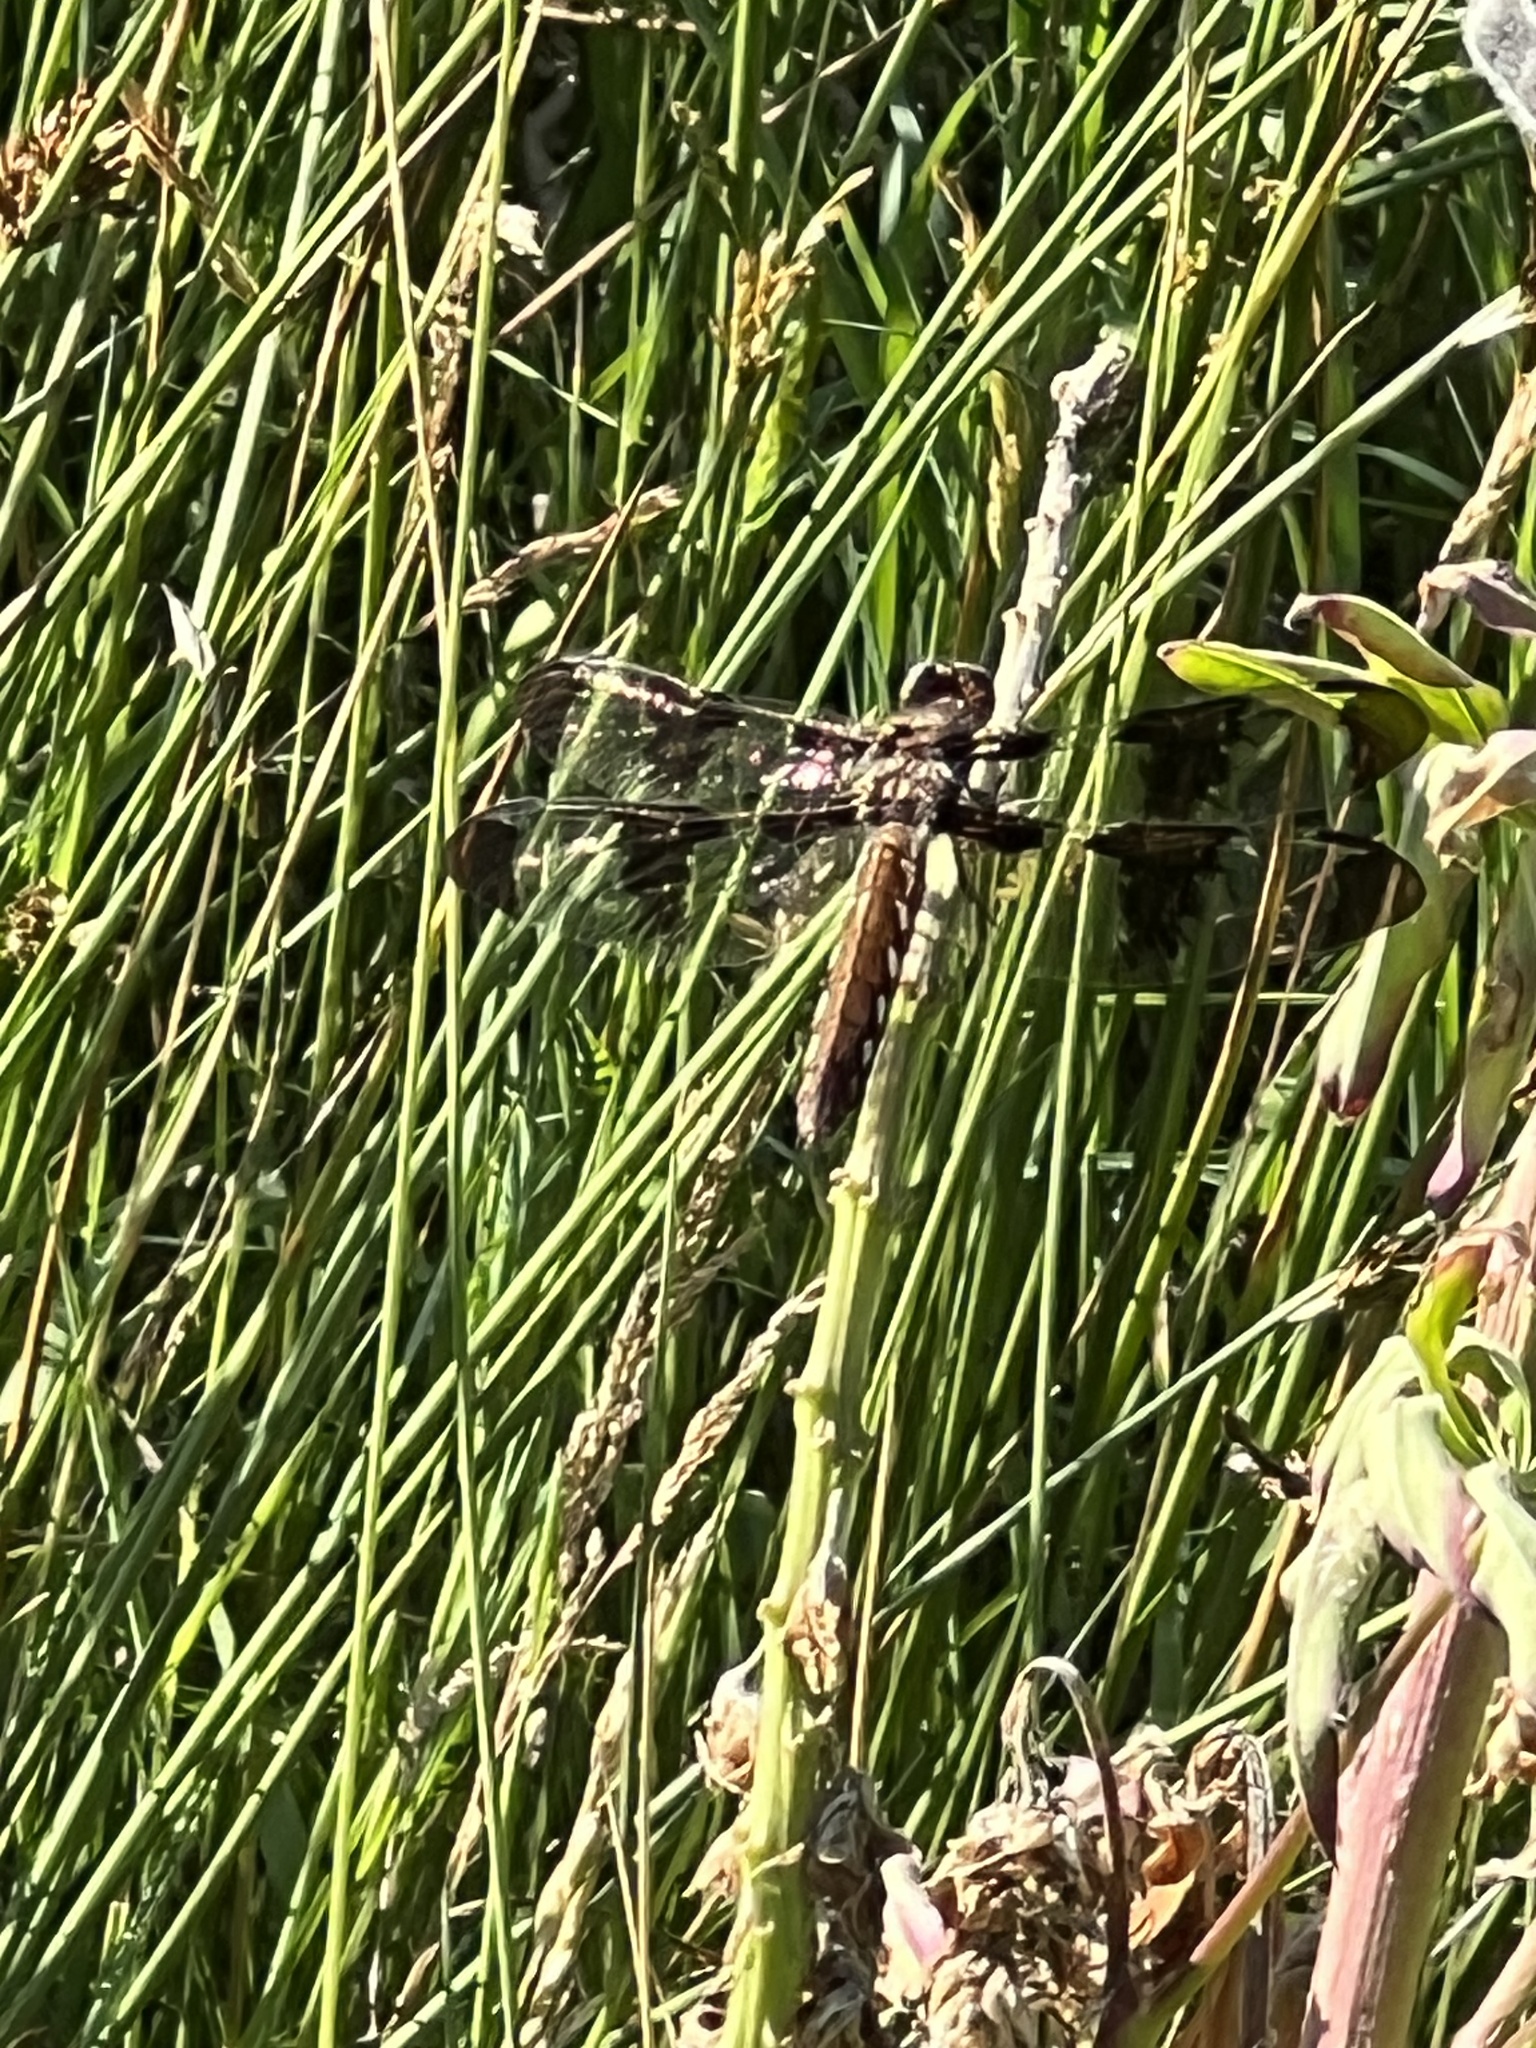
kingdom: Animalia
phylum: Arthropoda
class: Insecta
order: Odonata
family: Libellulidae
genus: Plathemis
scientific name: Plathemis lydia
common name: Common whitetail
